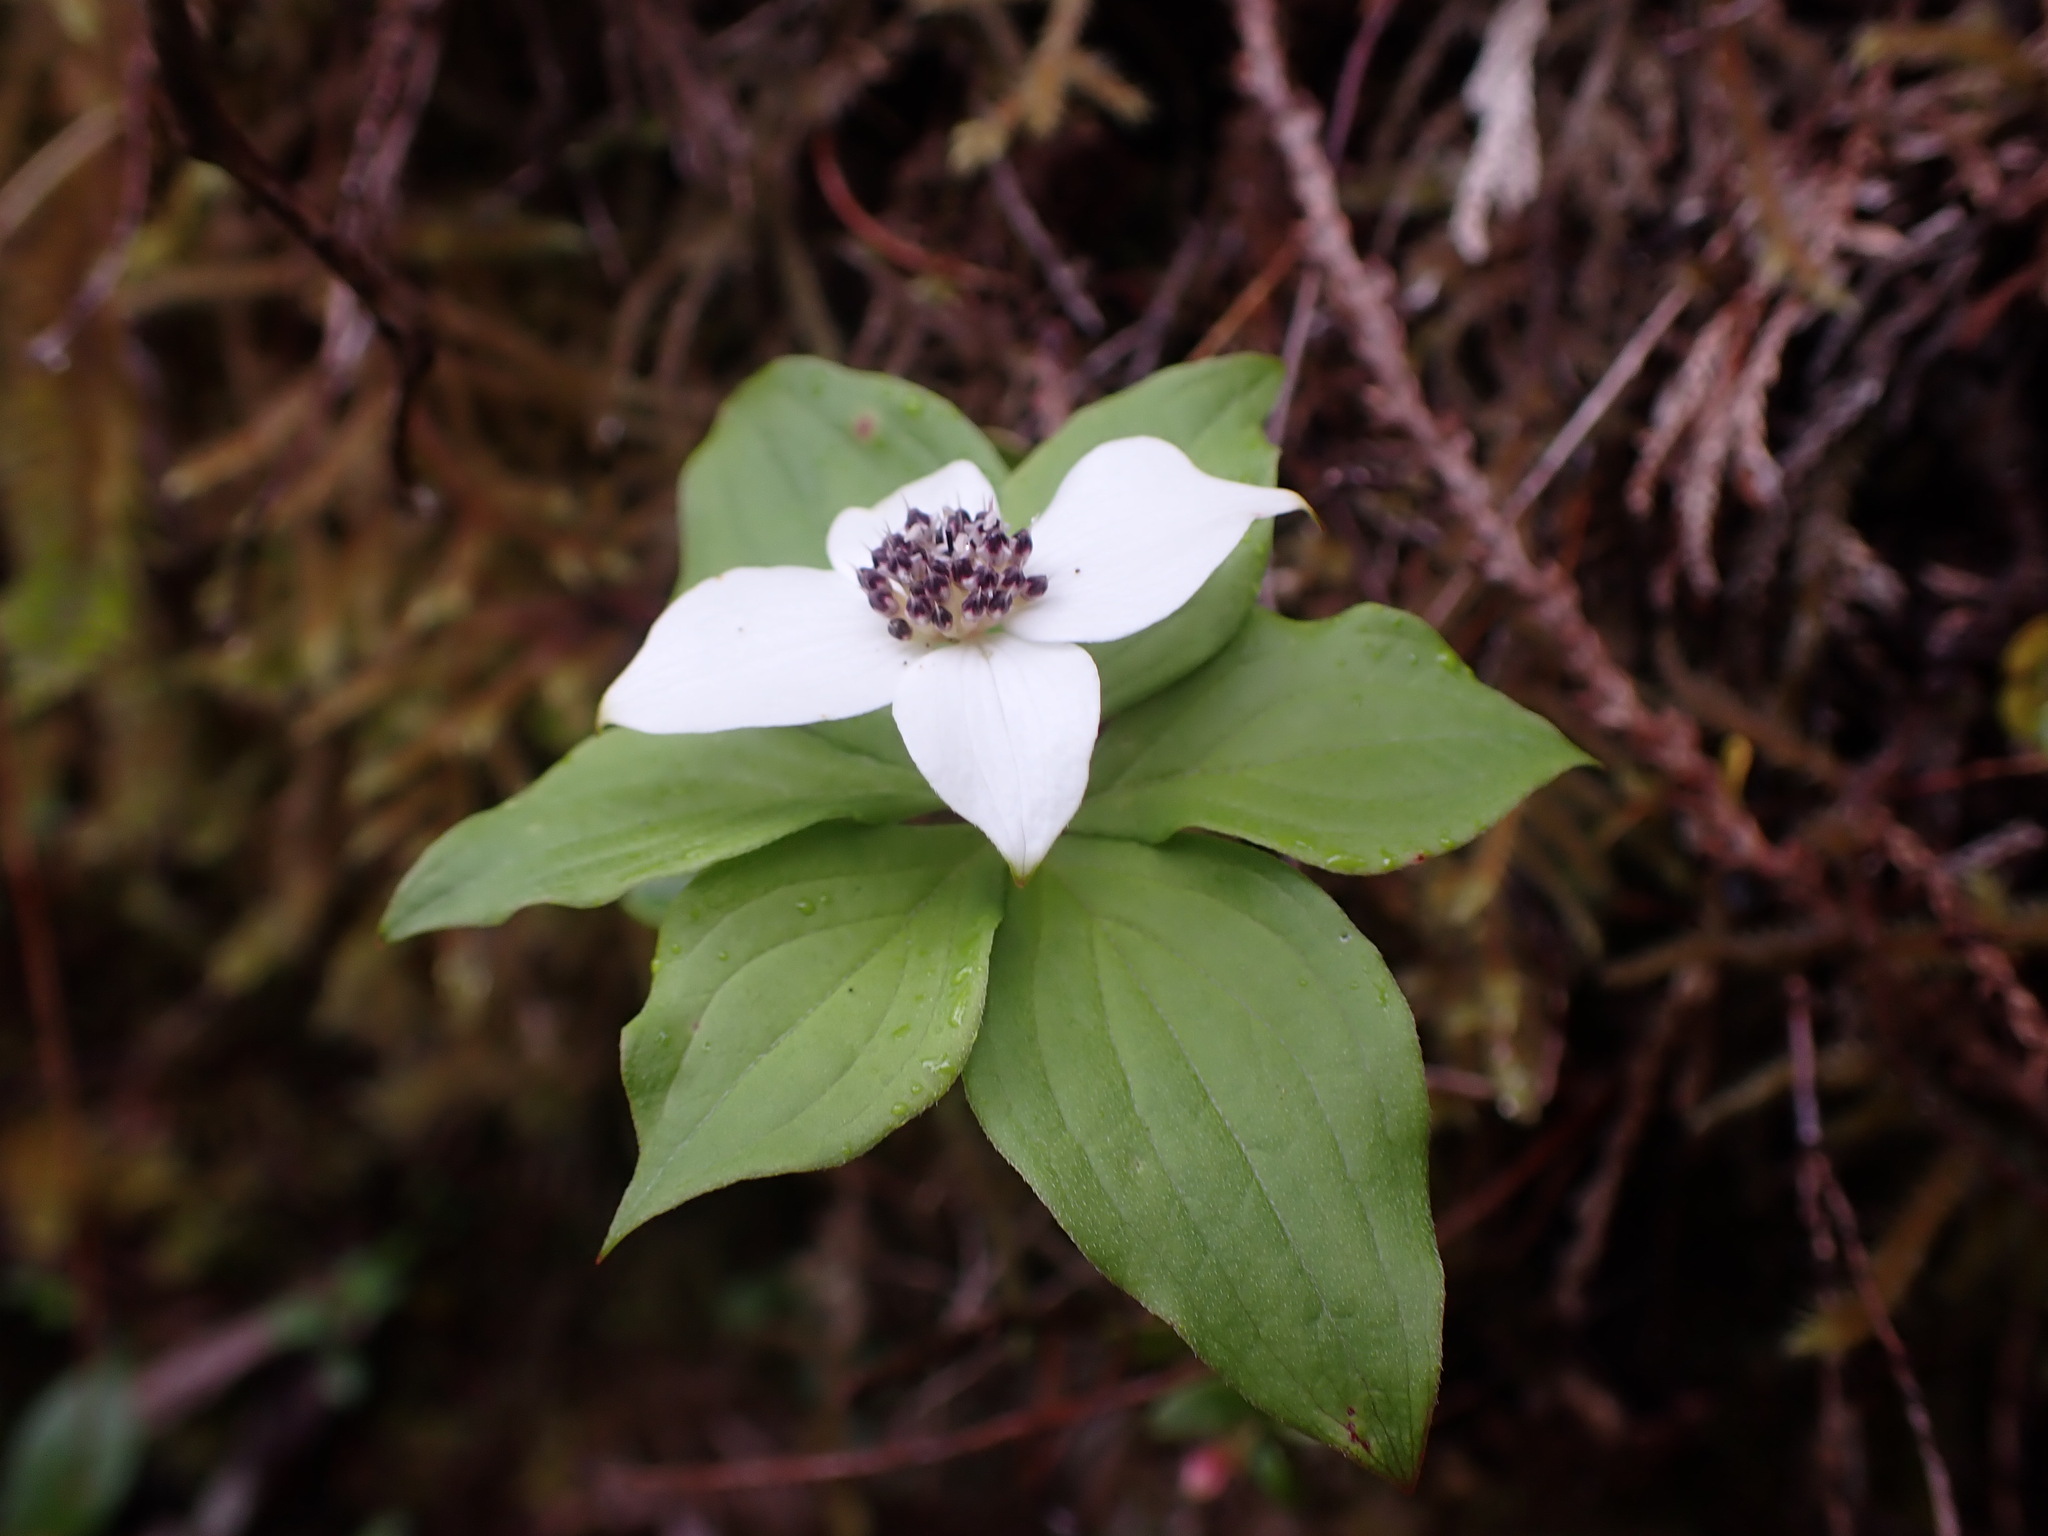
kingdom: Plantae
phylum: Tracheophyta
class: Magnoliopsida
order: Cornales
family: Cornaceae
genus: Cornus
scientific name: Cornus unalaschkensis
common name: Alaska bunchberry
